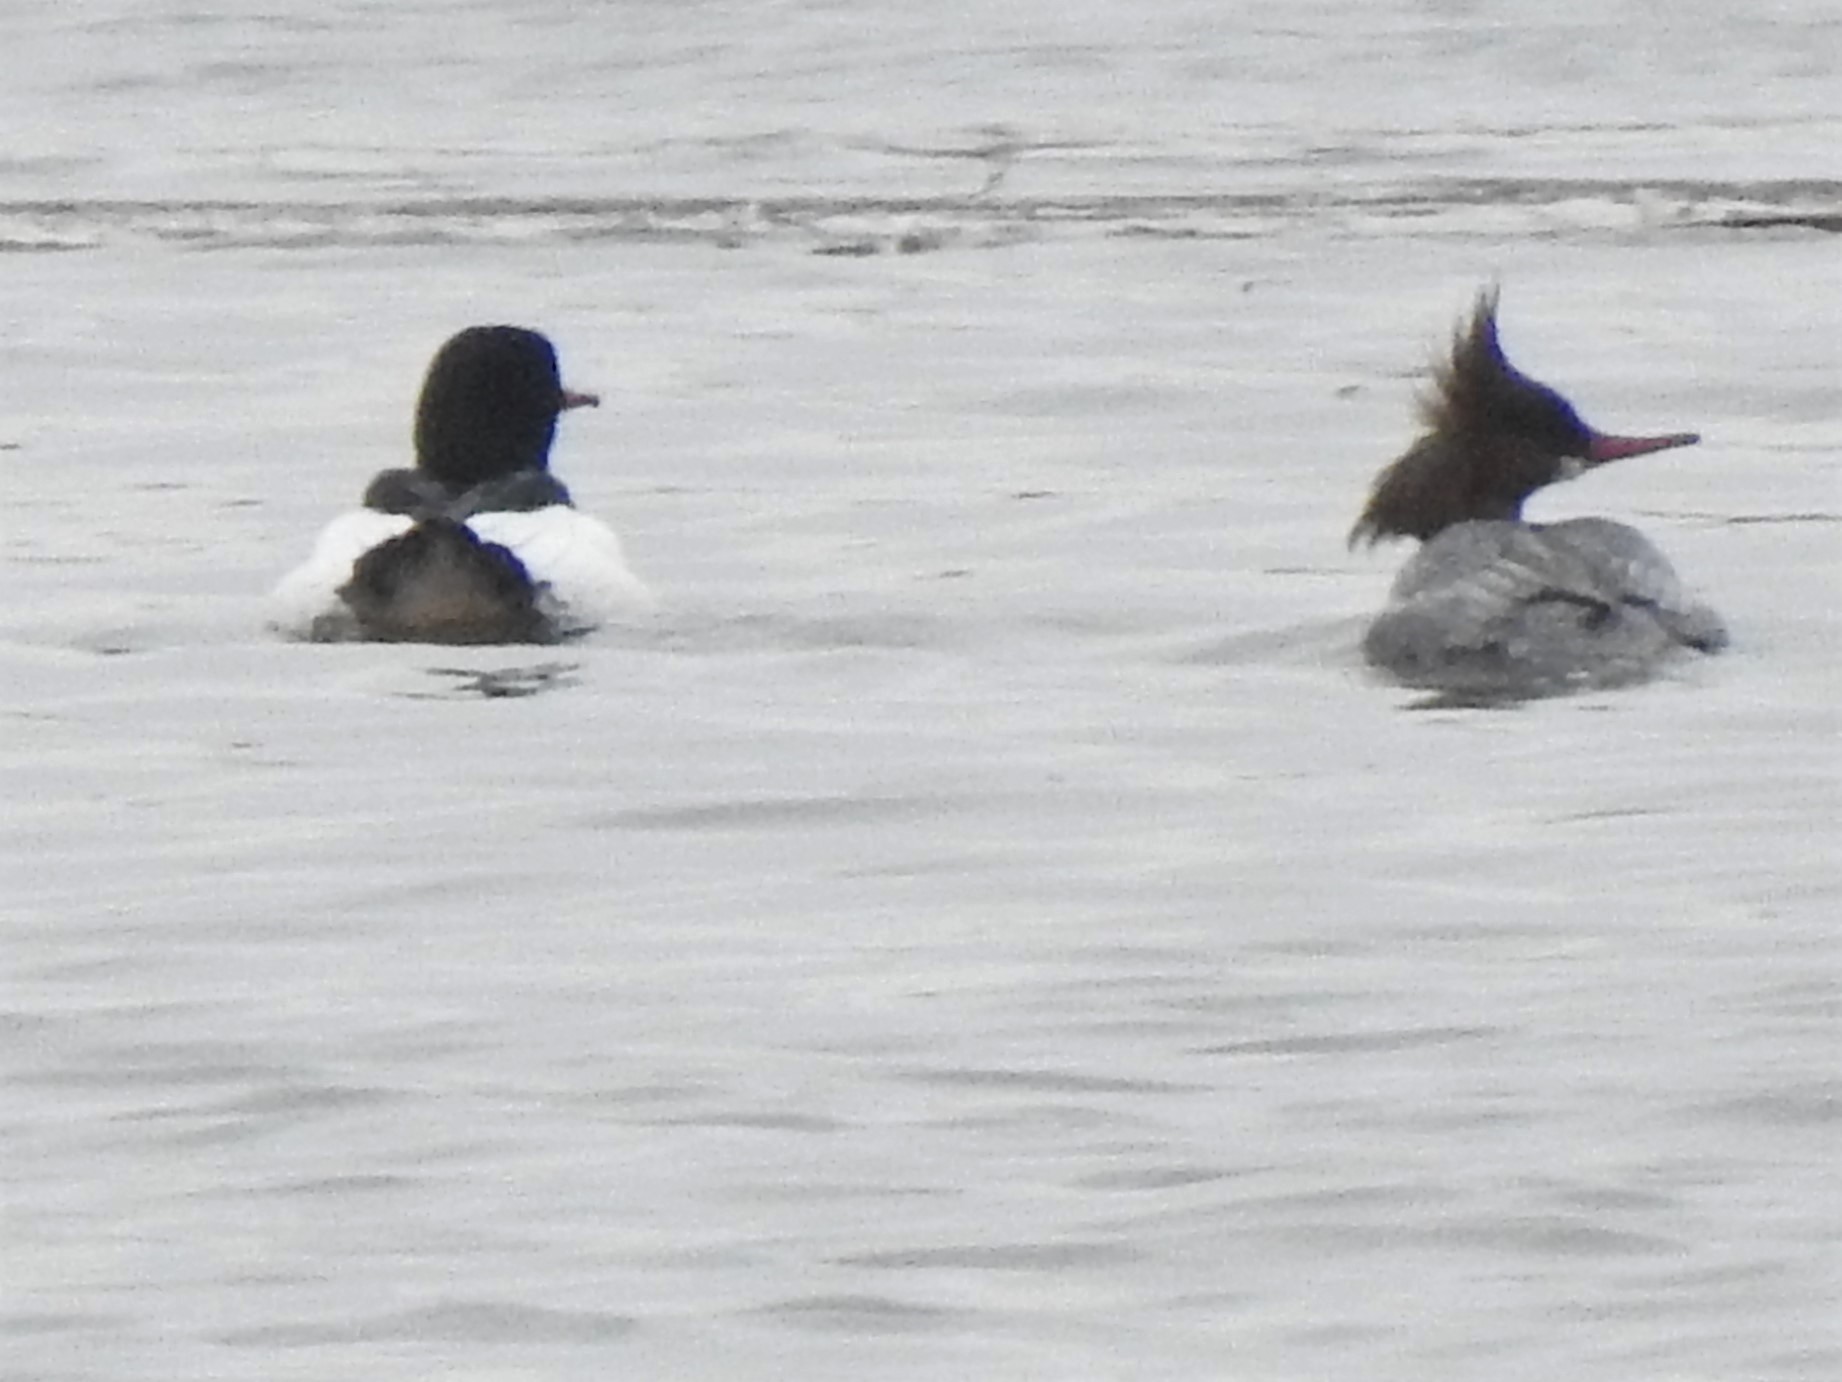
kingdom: Animalia
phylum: Chordata
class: Aves
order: Anseriformes
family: Anatidae
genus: Mergus
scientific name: Mergus merganser
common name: Common merganser
